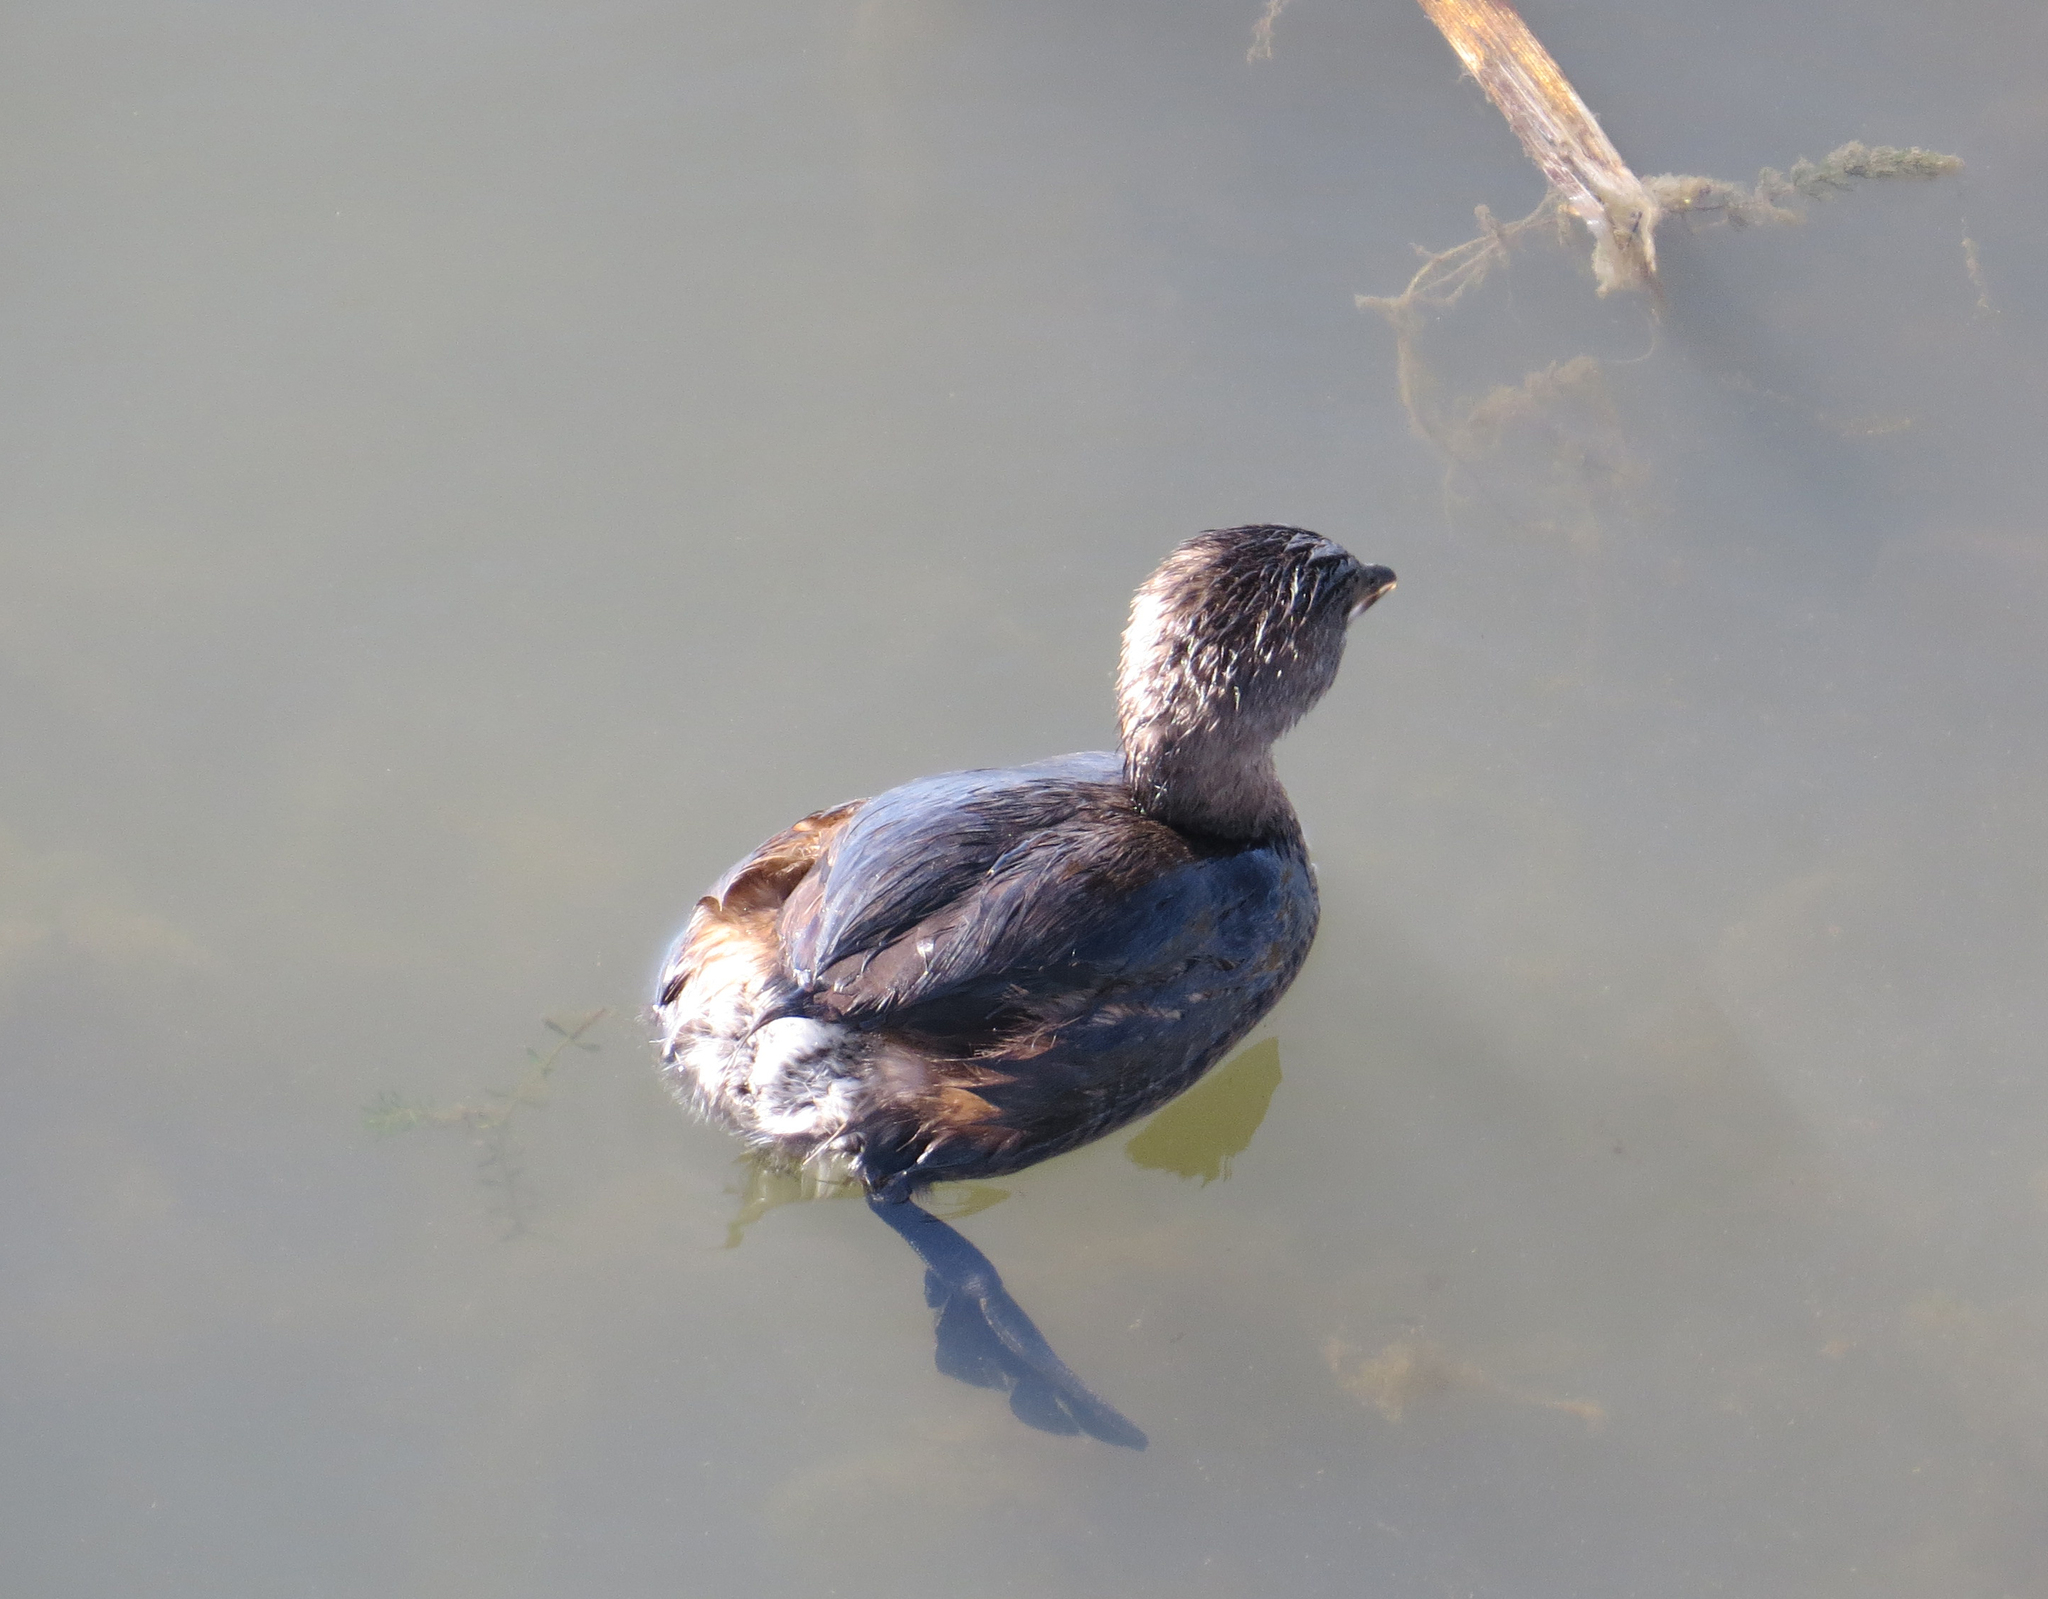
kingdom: Animalia
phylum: Chordata
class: Aves
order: Podicipediformes
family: Podicipedidae
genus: Podilymbus
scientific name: Podilymbus podiceps
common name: Pied-billed grebe
